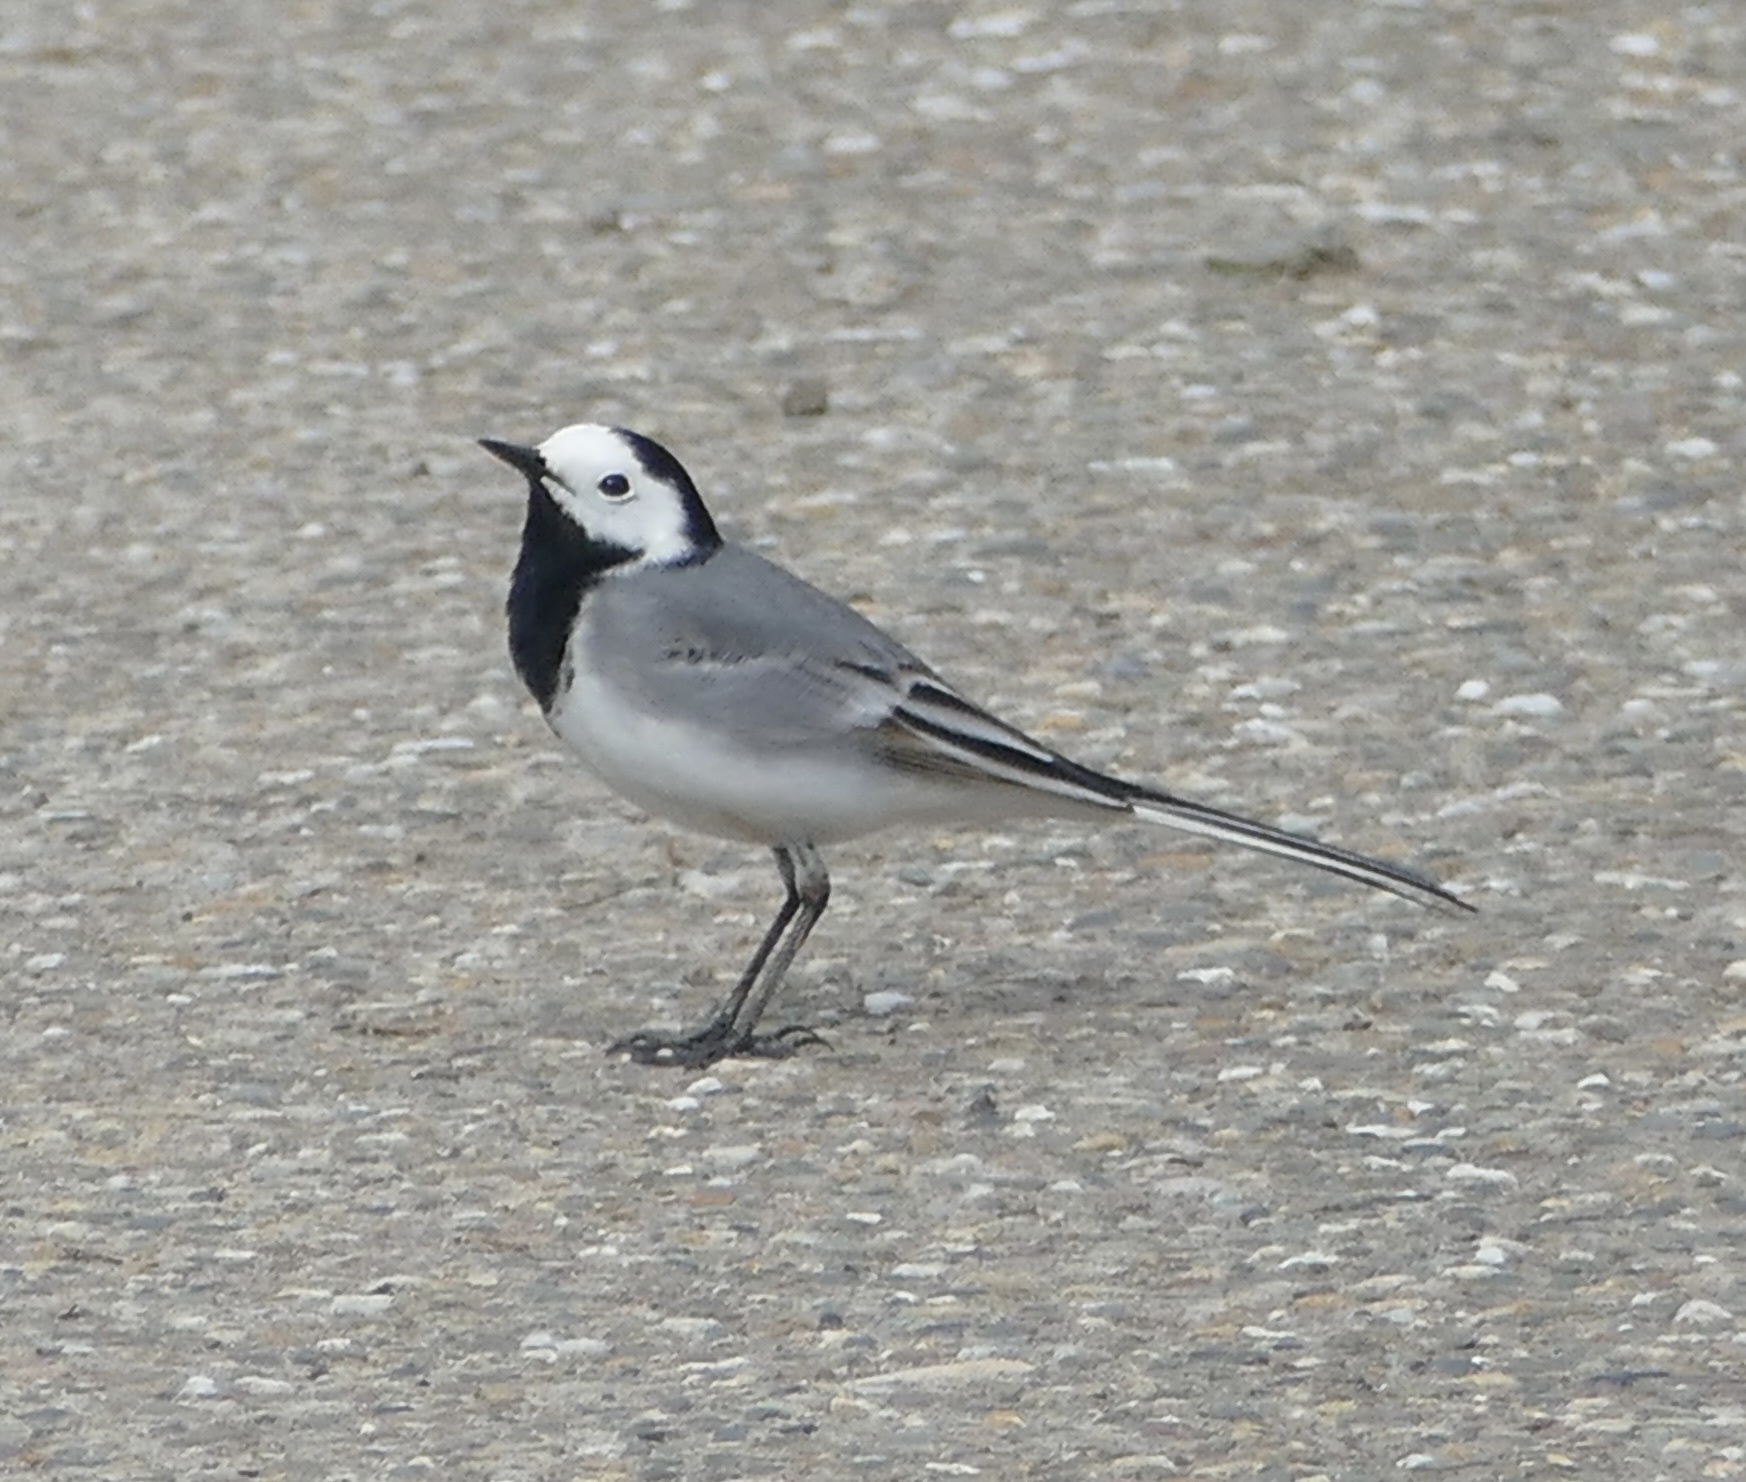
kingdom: Animalia
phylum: Chordata
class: Aves
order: Passeriformes
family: Motacillidae
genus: Motacilla
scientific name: Motacilla alba
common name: White wagtail
